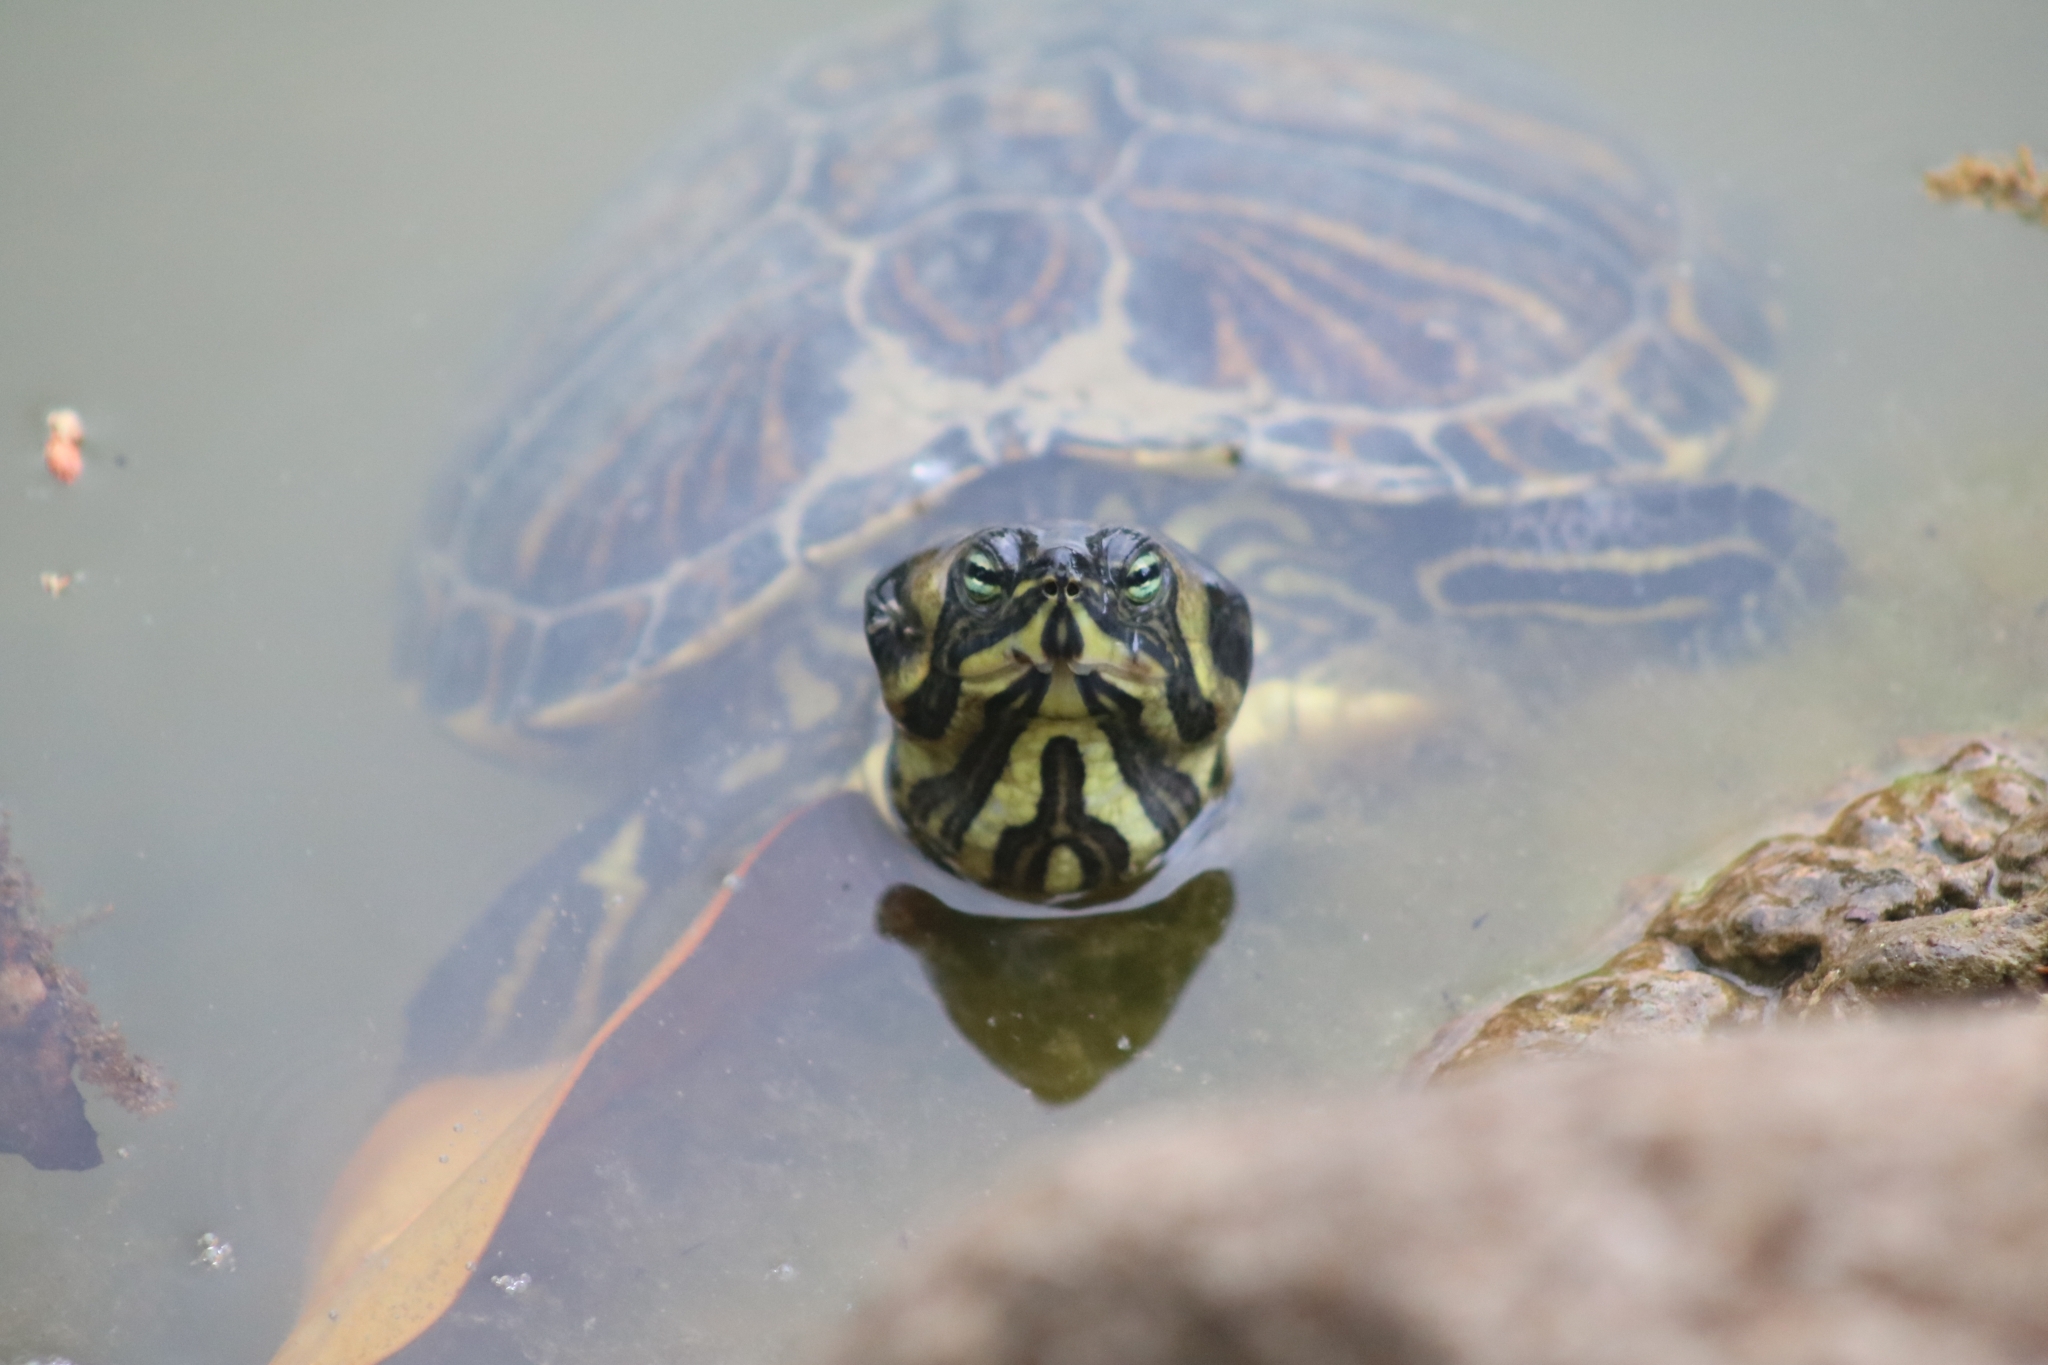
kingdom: Animalia
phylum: Chordata
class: Testudines
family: Emydidae
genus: Trachemys
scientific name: Trachemys scripta
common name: Slider
